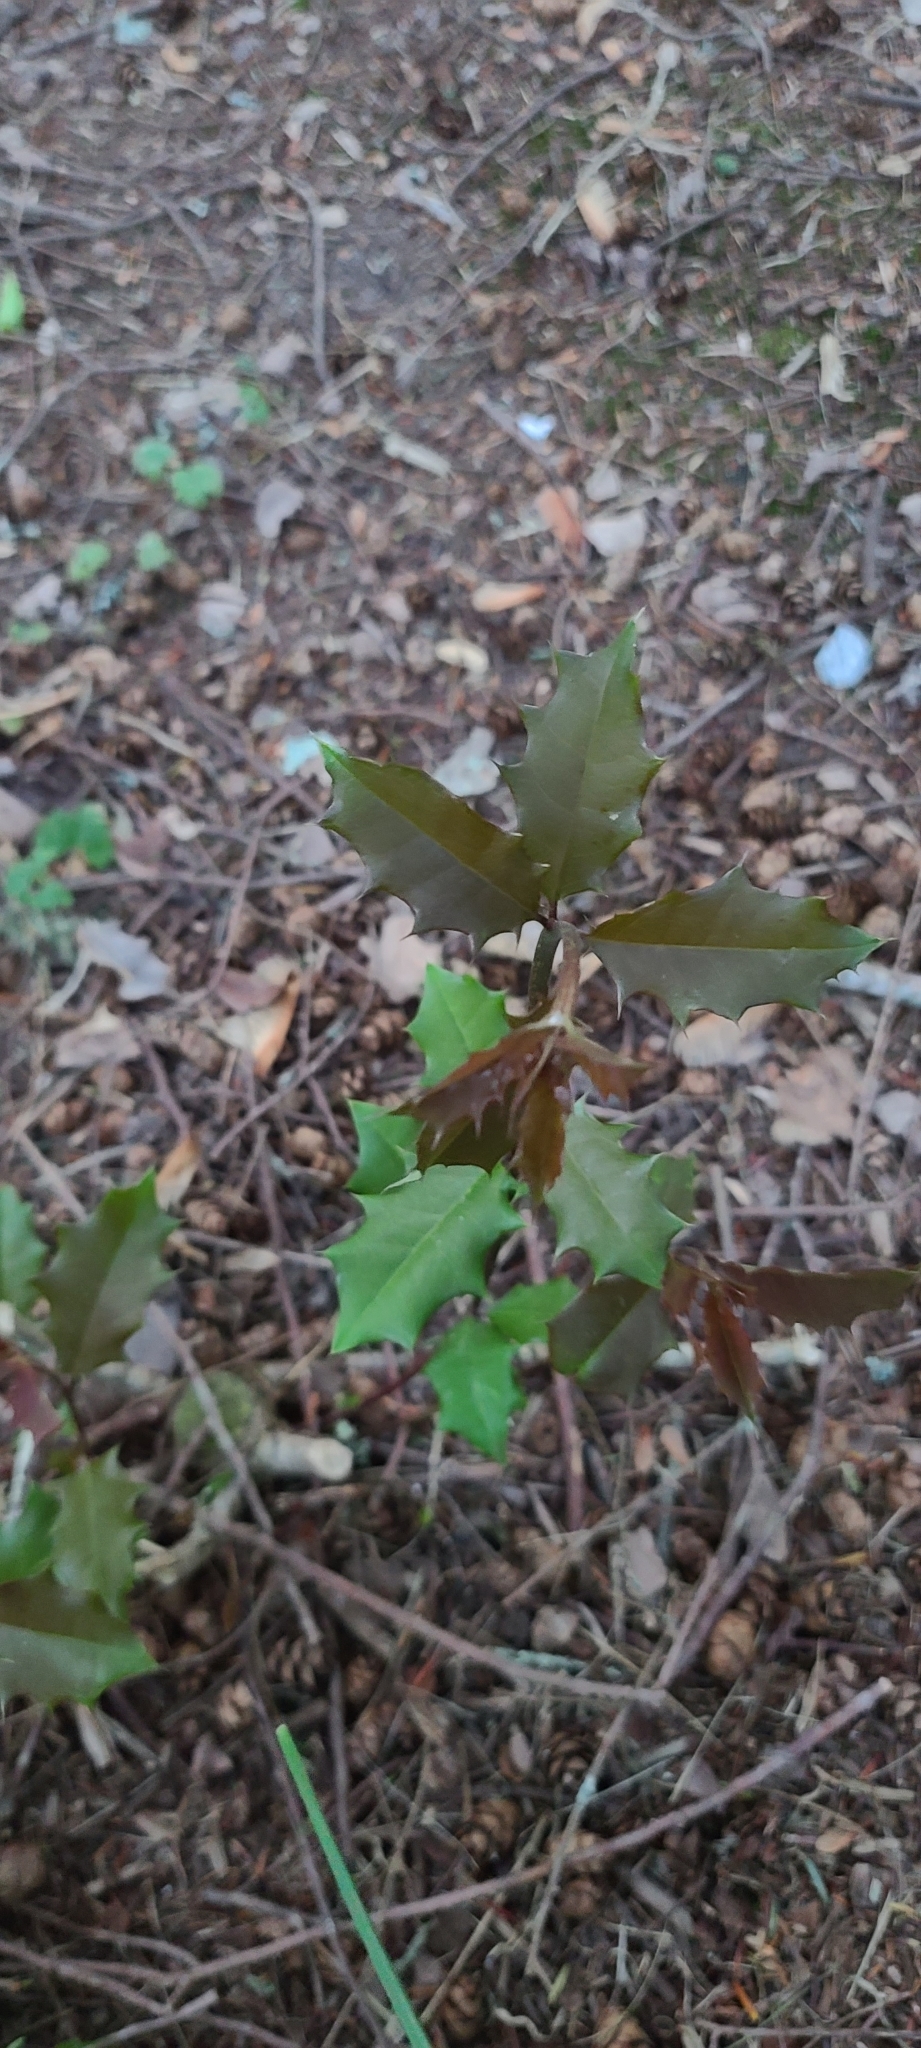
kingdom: Plantae
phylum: Tracheophyta
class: Magnoliopsida
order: Aquifoliales
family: Aquifoliaceae
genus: Ilex
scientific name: Ilex opaca
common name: American holly
